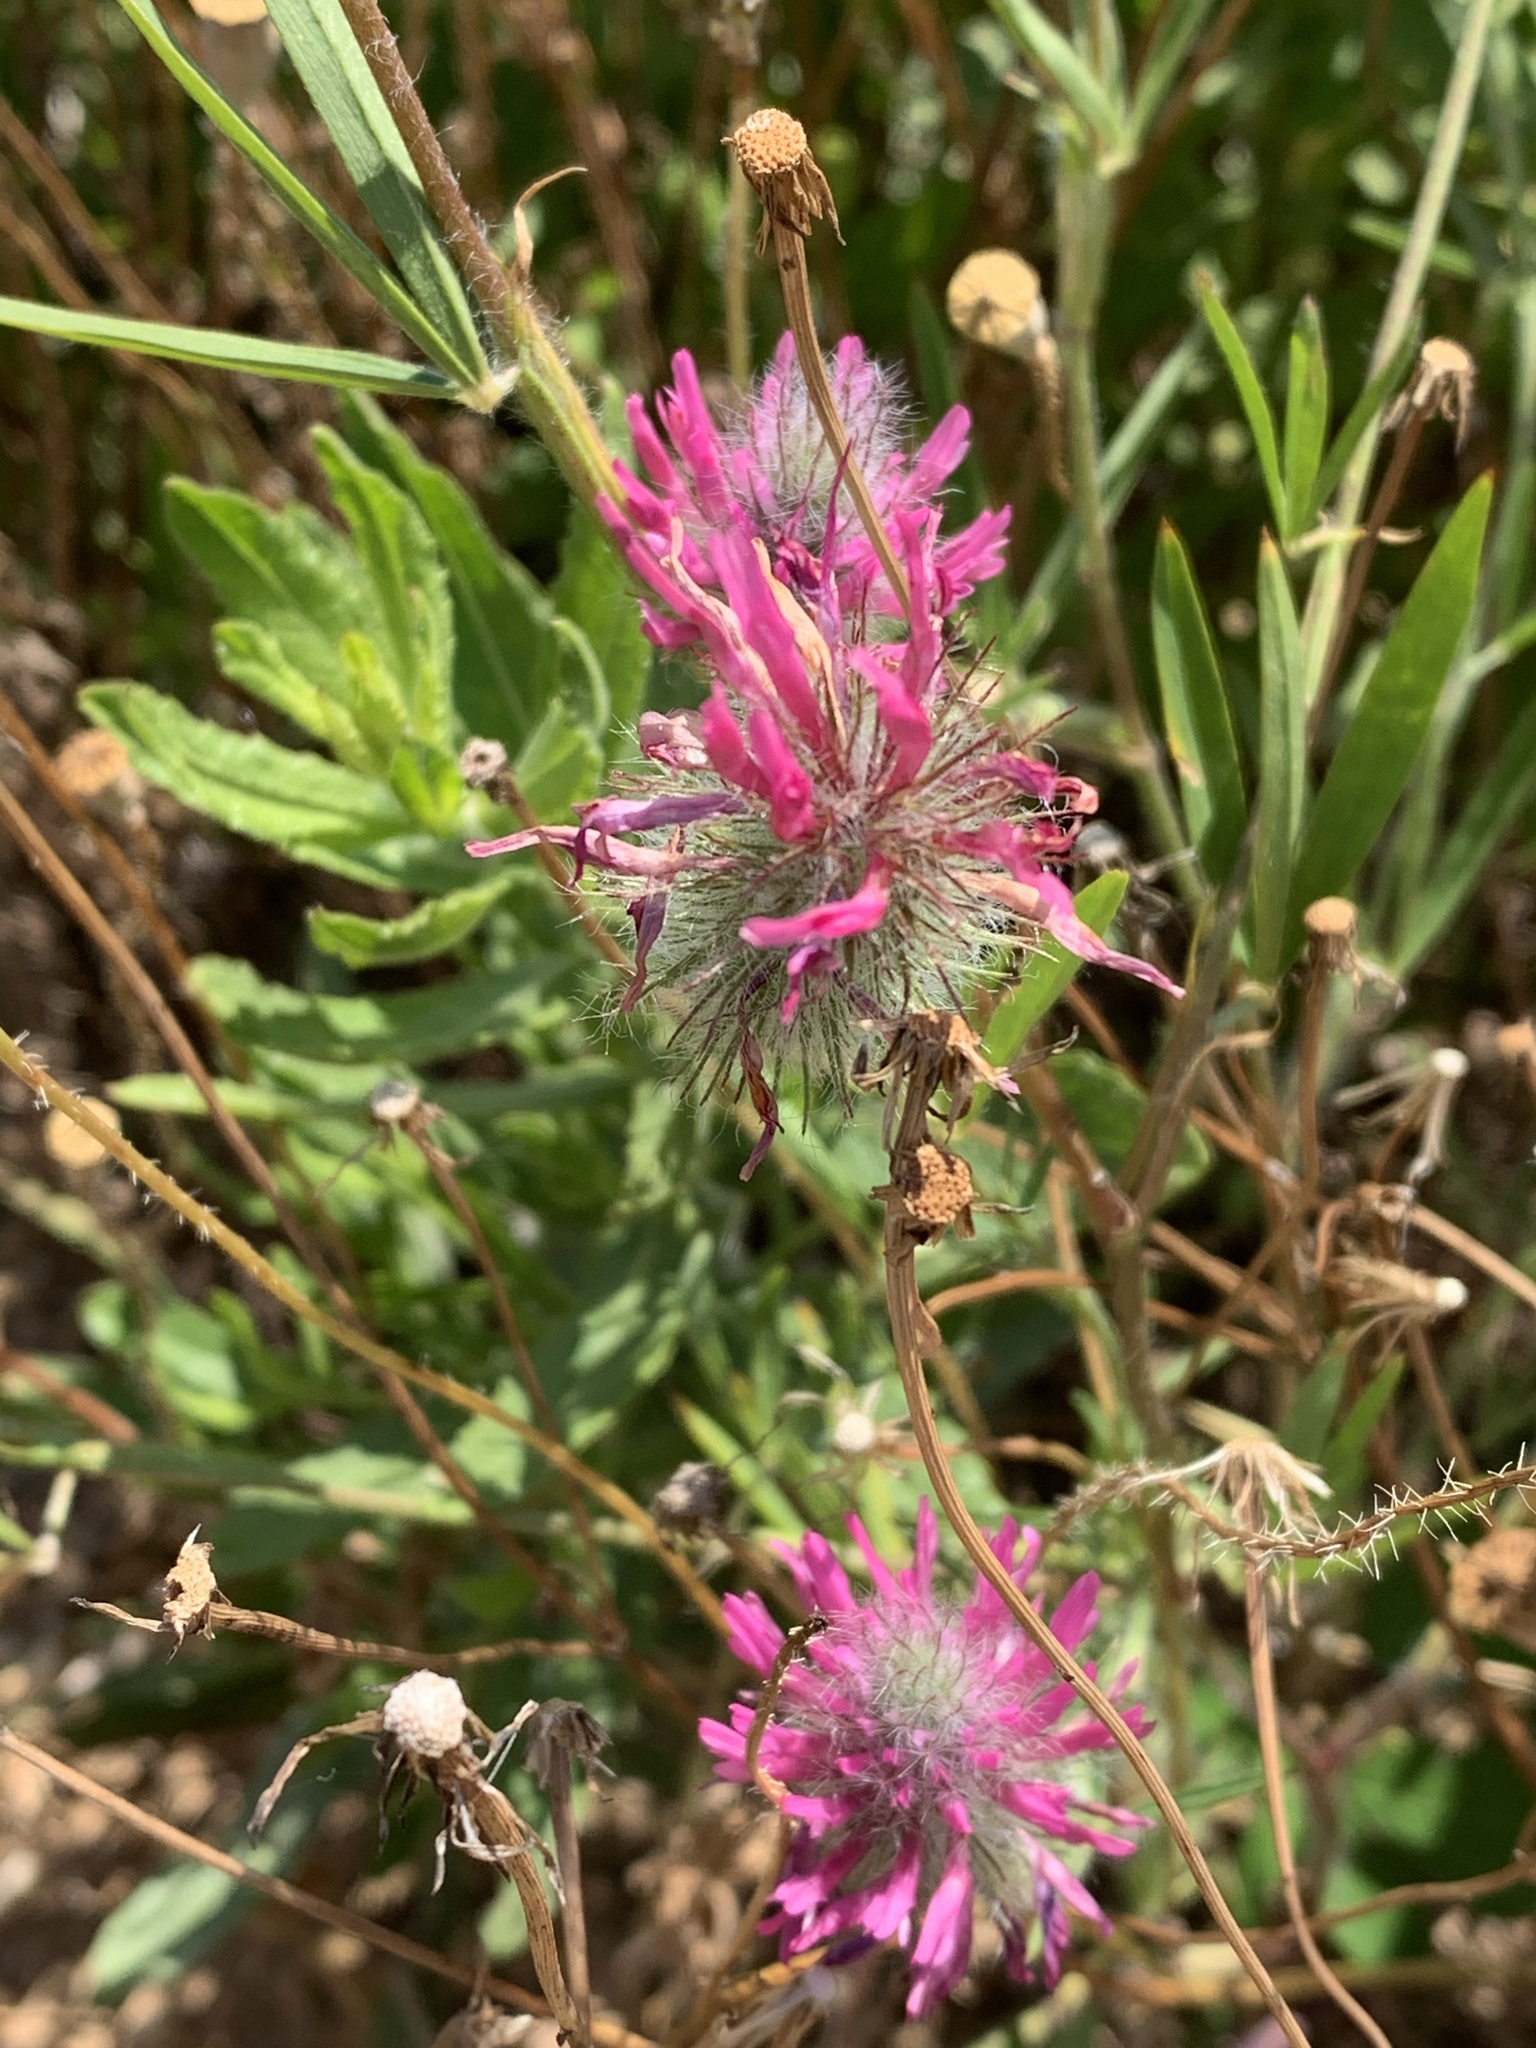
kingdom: Plantae
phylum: Tracheophyta
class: Magnoliopsida
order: Fabales
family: Fabaceae
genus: Trifolium
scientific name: Trifolium purpureum
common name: Purple clover
